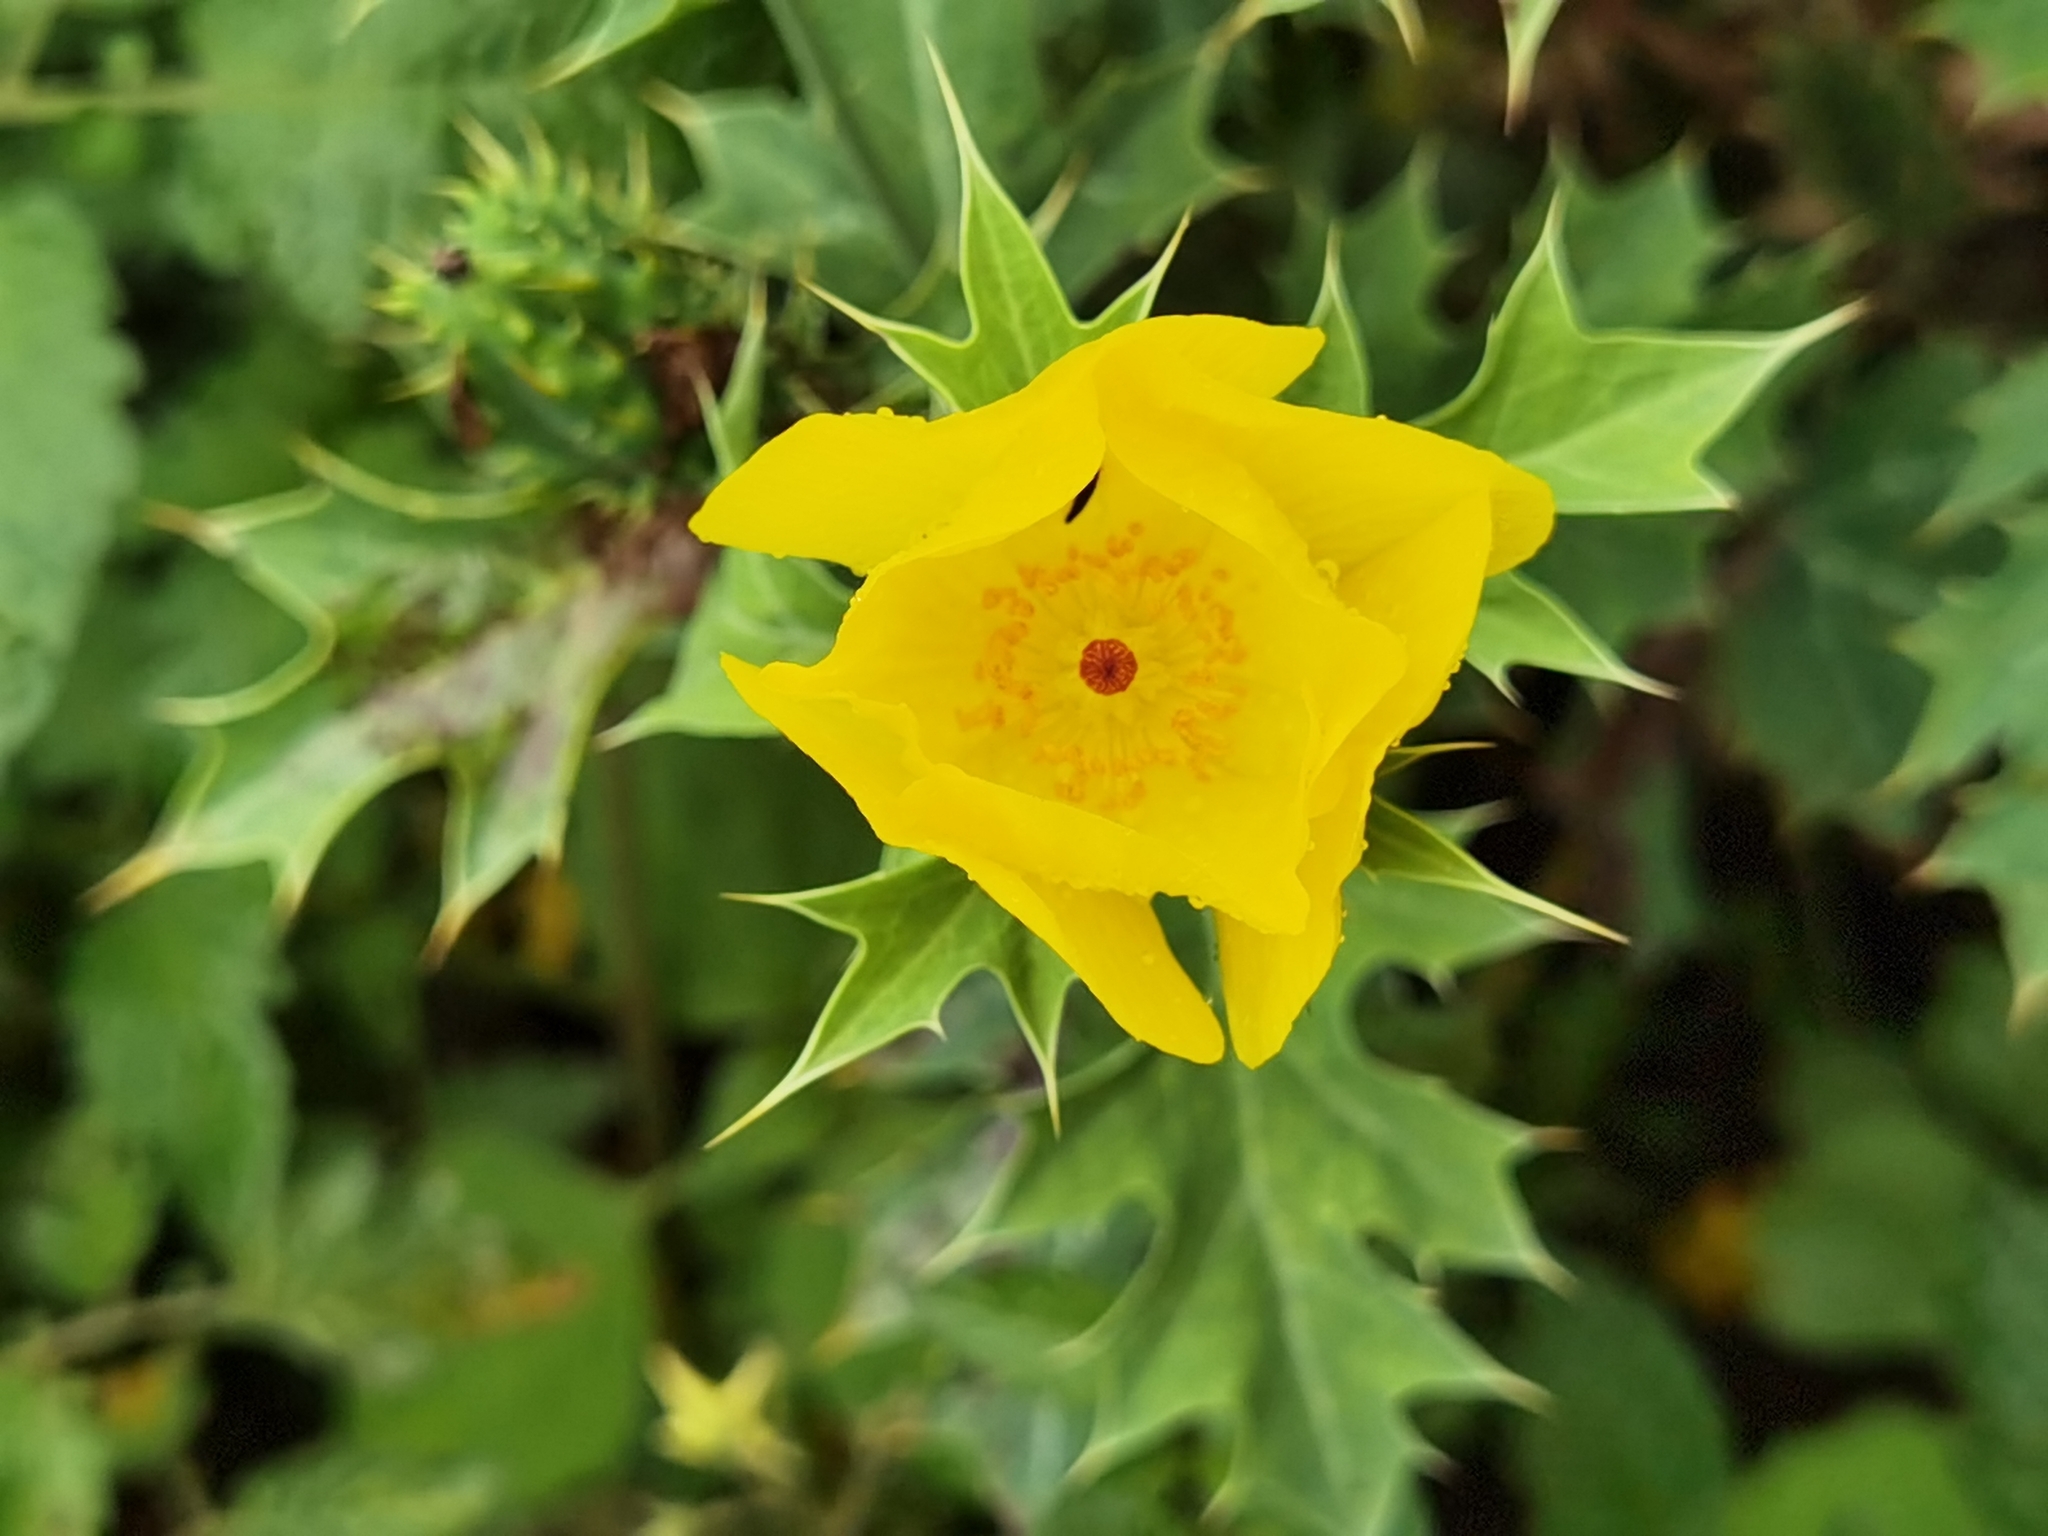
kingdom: Plantae
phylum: Tracheophyta
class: Magnoliopsida
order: Ranunculales
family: Papaveraceae
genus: Argemone
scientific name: Argemone mexicana
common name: Mexican poppy
